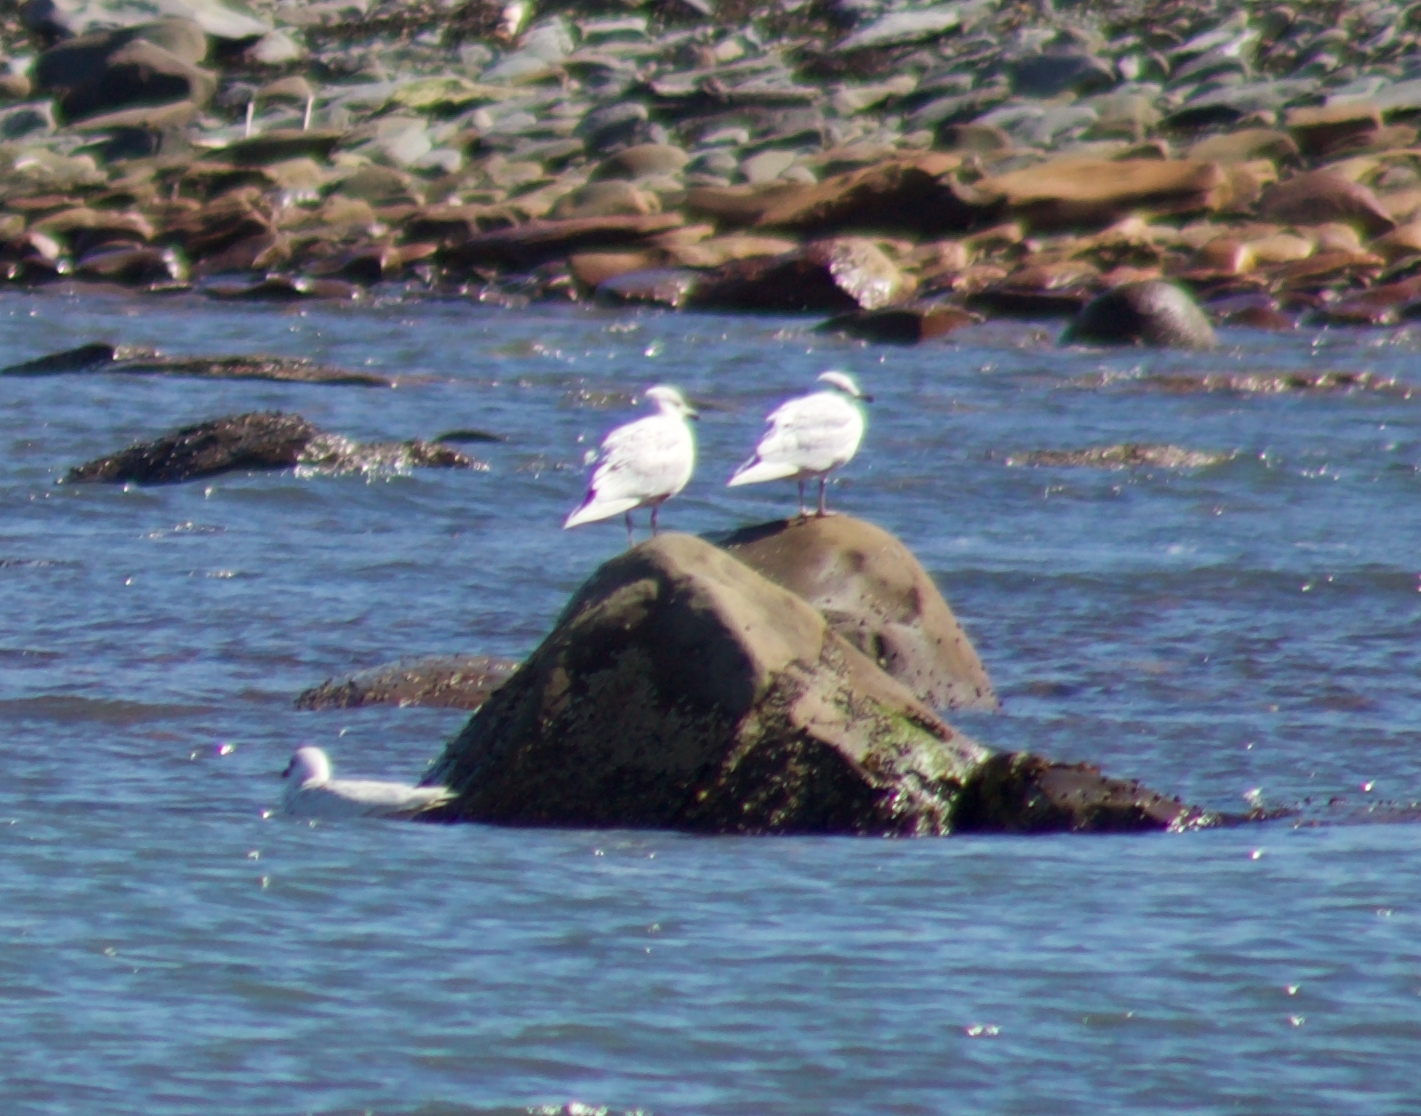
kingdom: Animalia
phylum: Chordata
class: Aves
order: Charadriiformes
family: Laridae
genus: Larus
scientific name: Larus glaucoides
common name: Iceland gull
